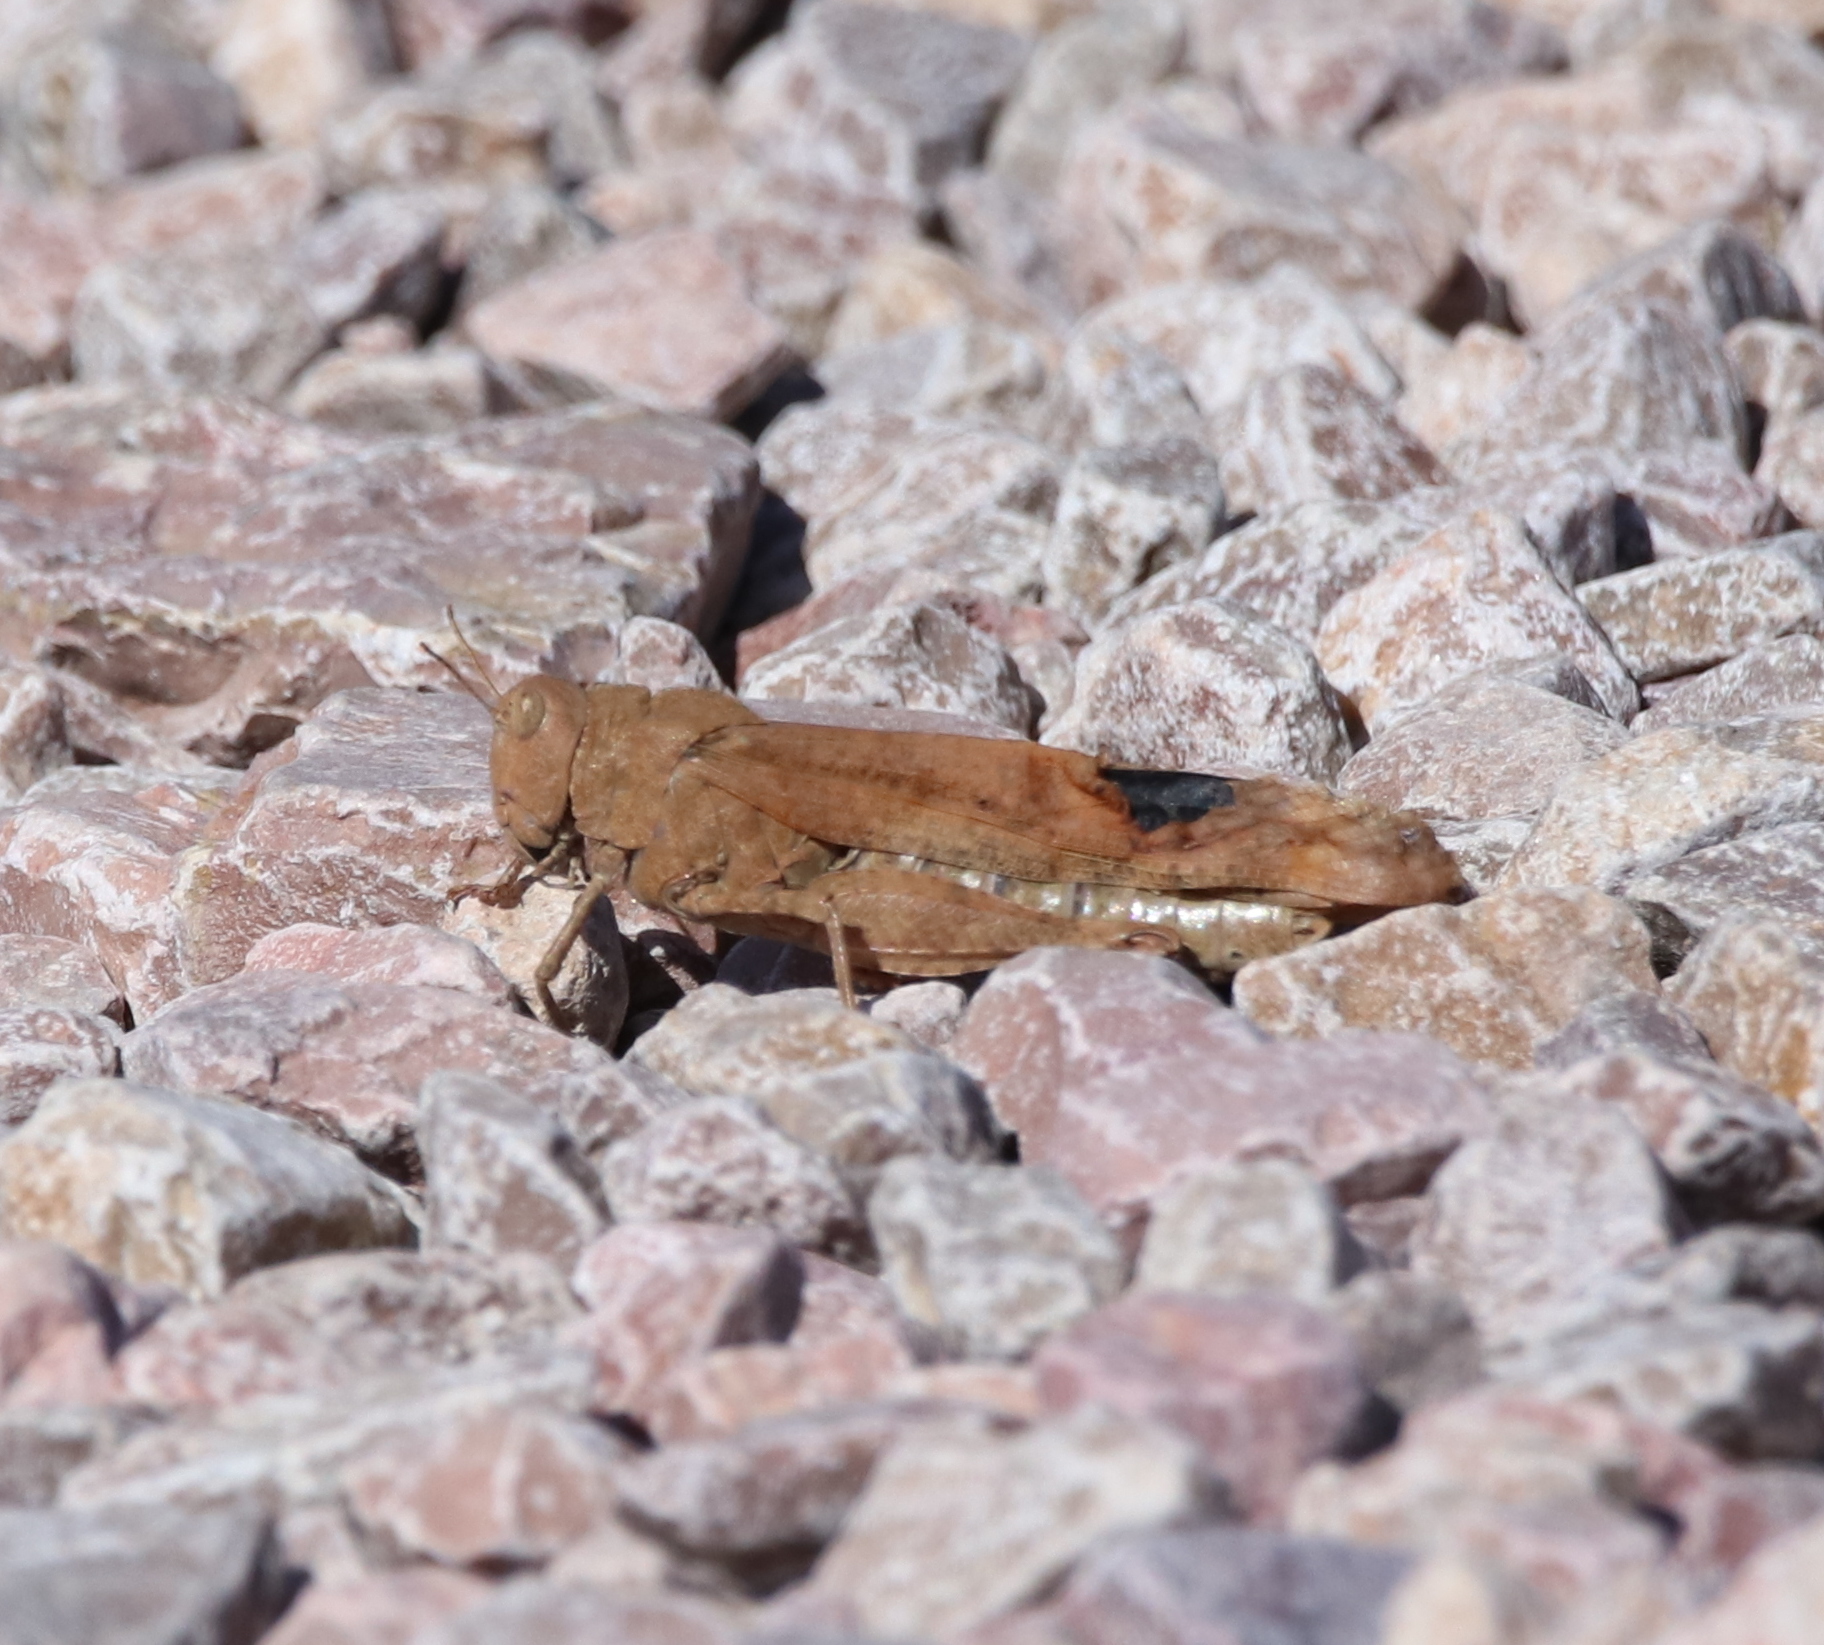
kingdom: Animalia
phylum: Arthropoda
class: Insecta
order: Orthoptera
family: Acrididae
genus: Dissosteira
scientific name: Dissosteira carolina
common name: Carolina grasshopper
